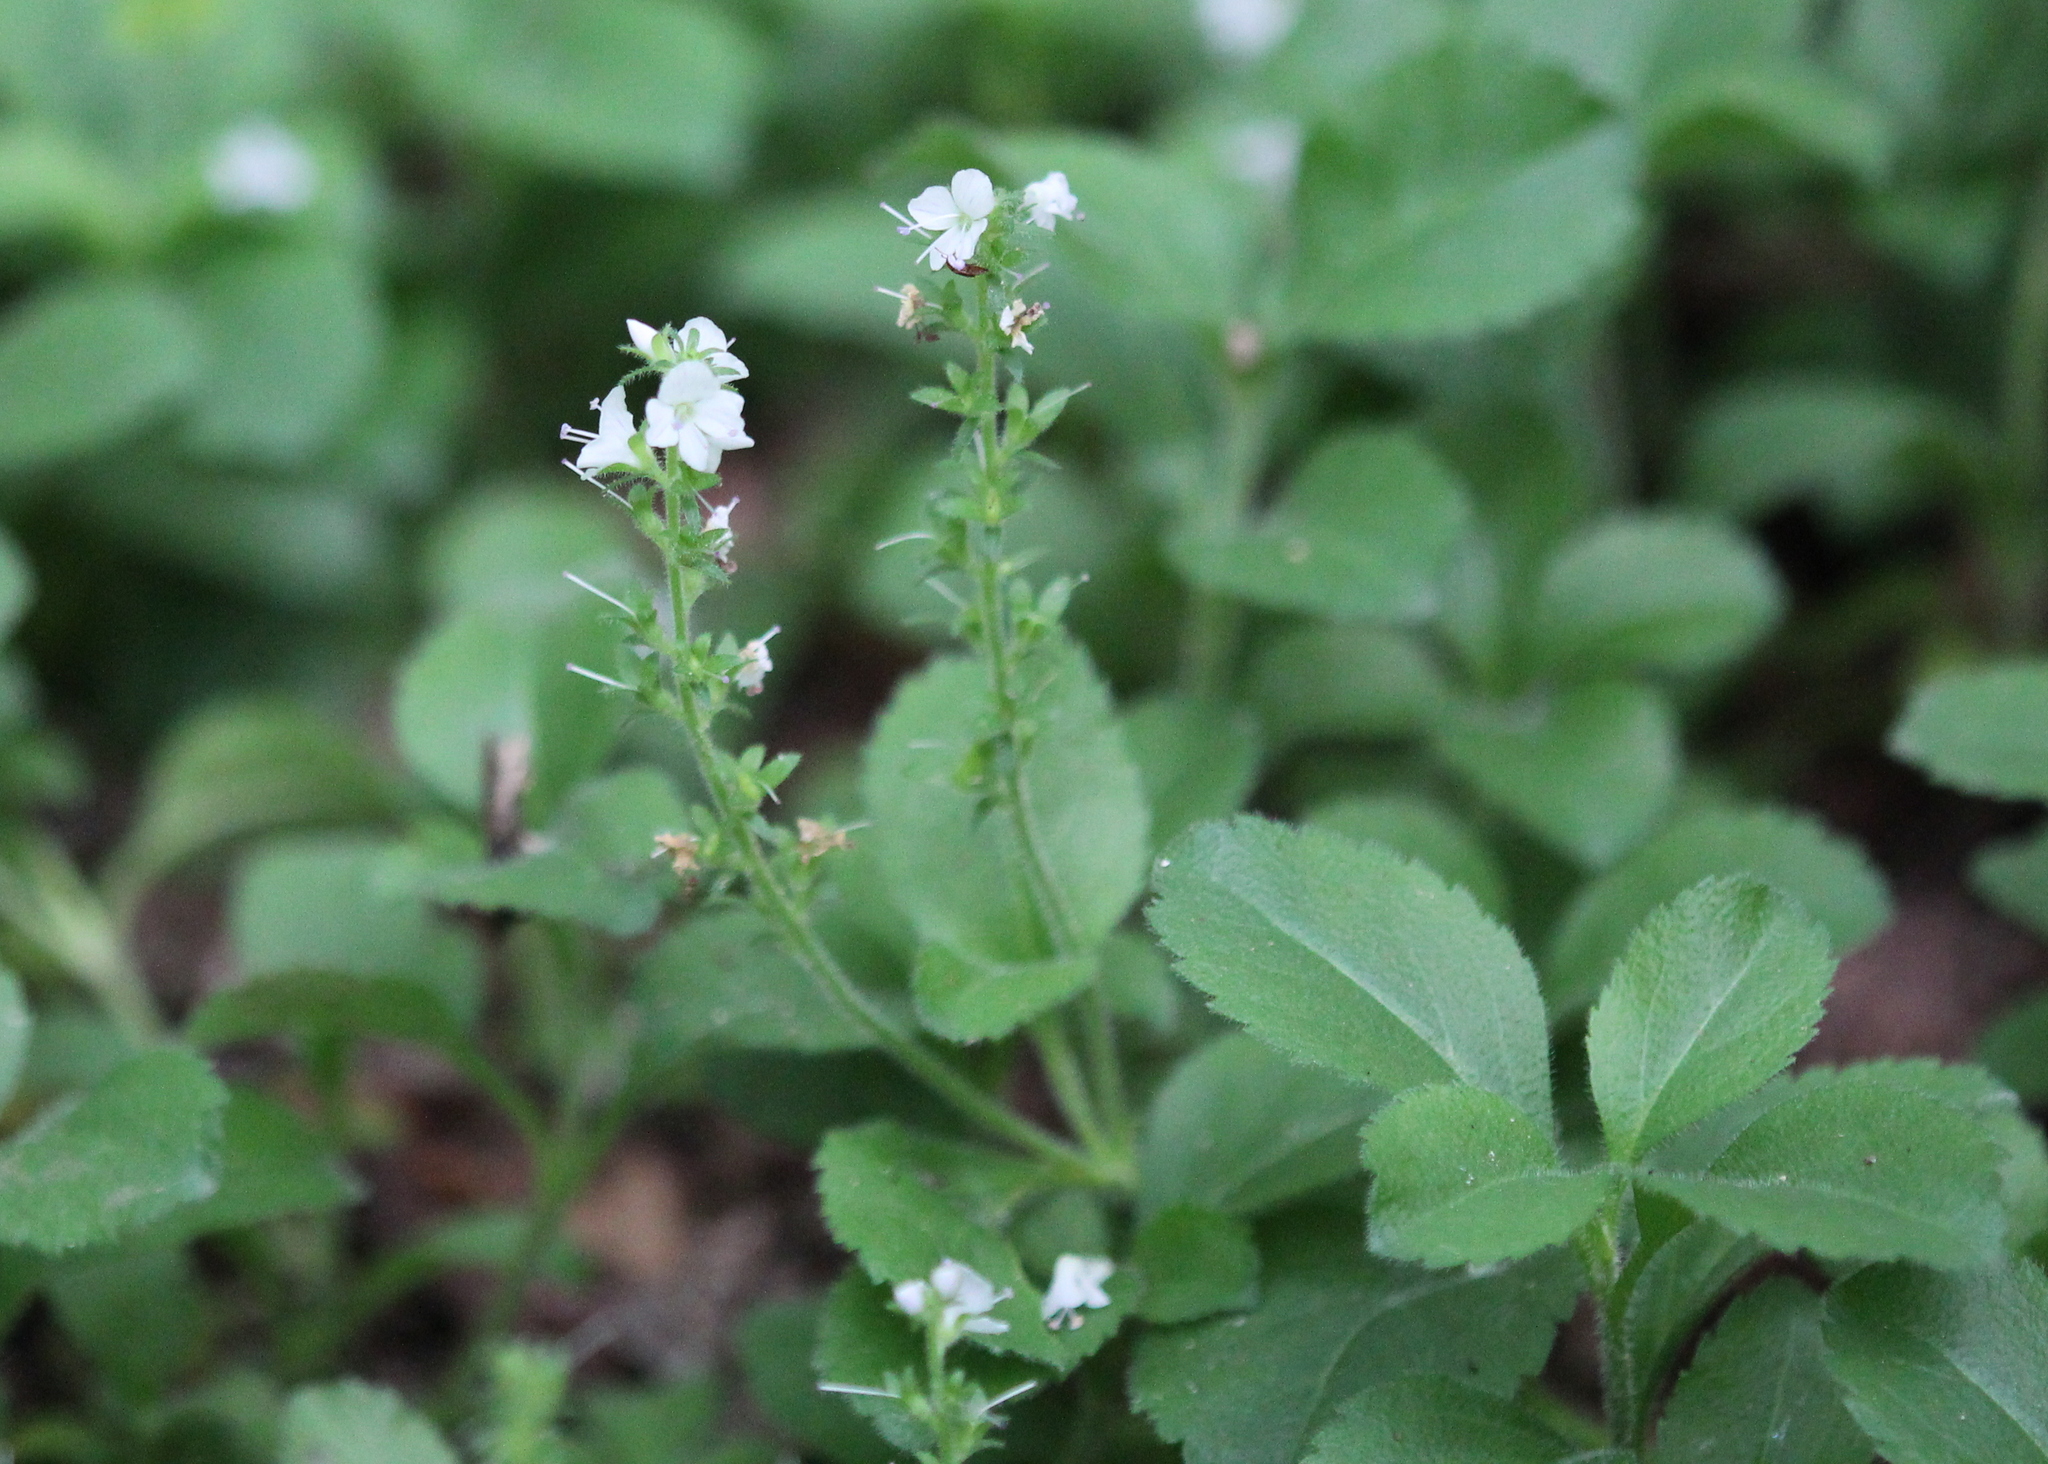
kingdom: Plantae
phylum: Tracheophyta
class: Magnoliopsida
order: Lamiales
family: Plantaginaceae
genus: Veronica
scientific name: Veronica officinalis
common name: Common speedwell
